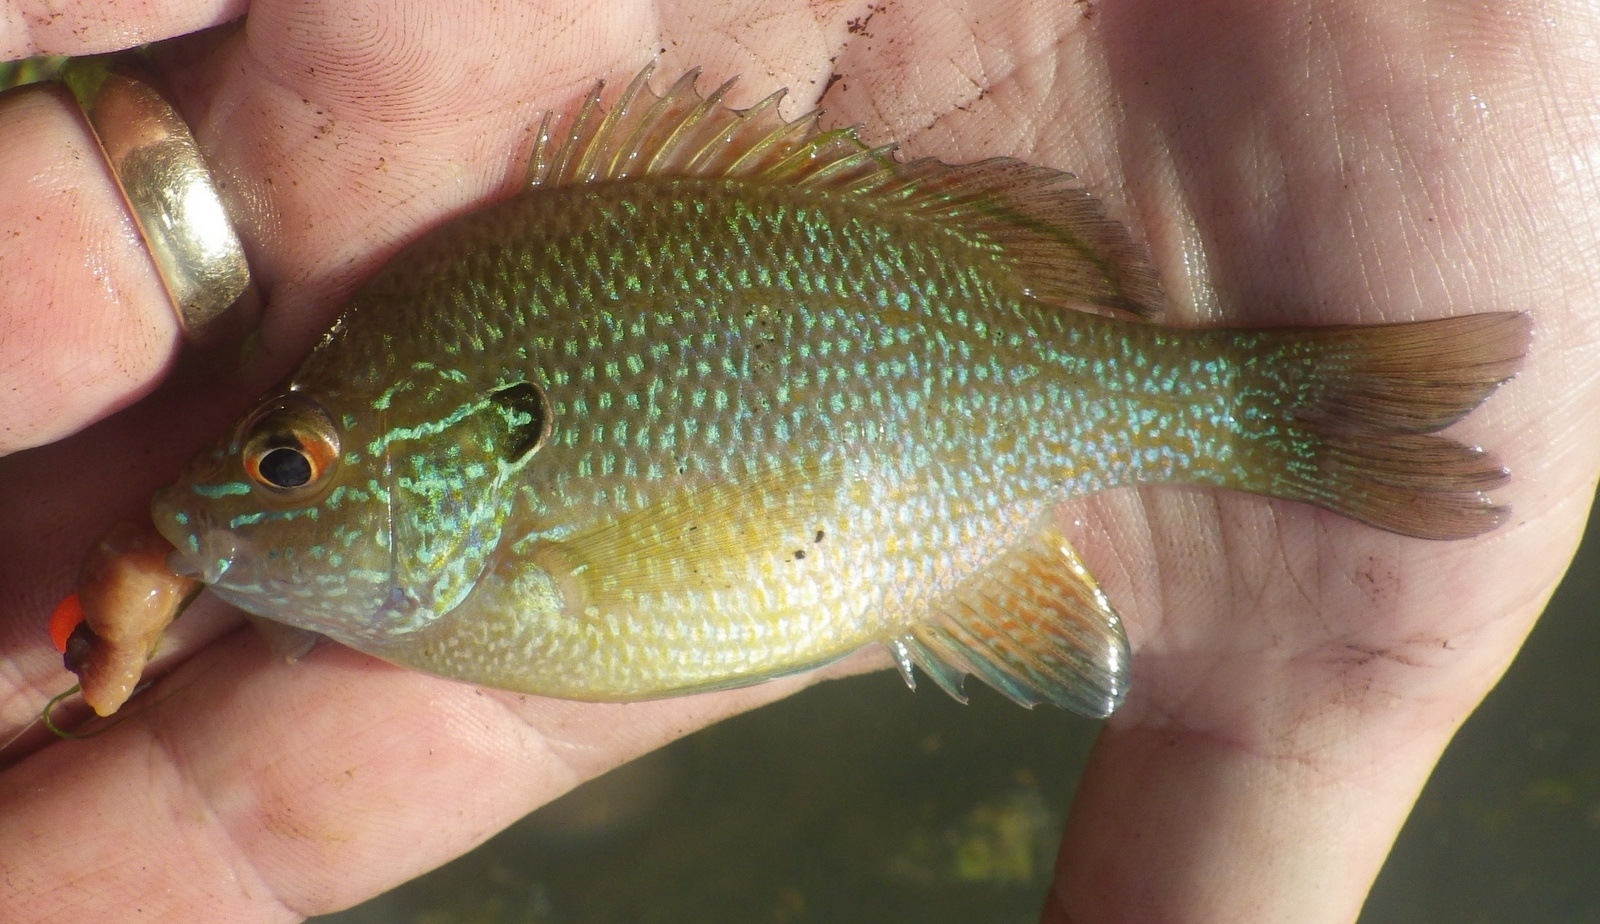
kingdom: Animalia
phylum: Chordata
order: Perciformes
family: Centrarchidae
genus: Lepomis
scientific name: Lepomis marginatus
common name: Dollar sunfish
